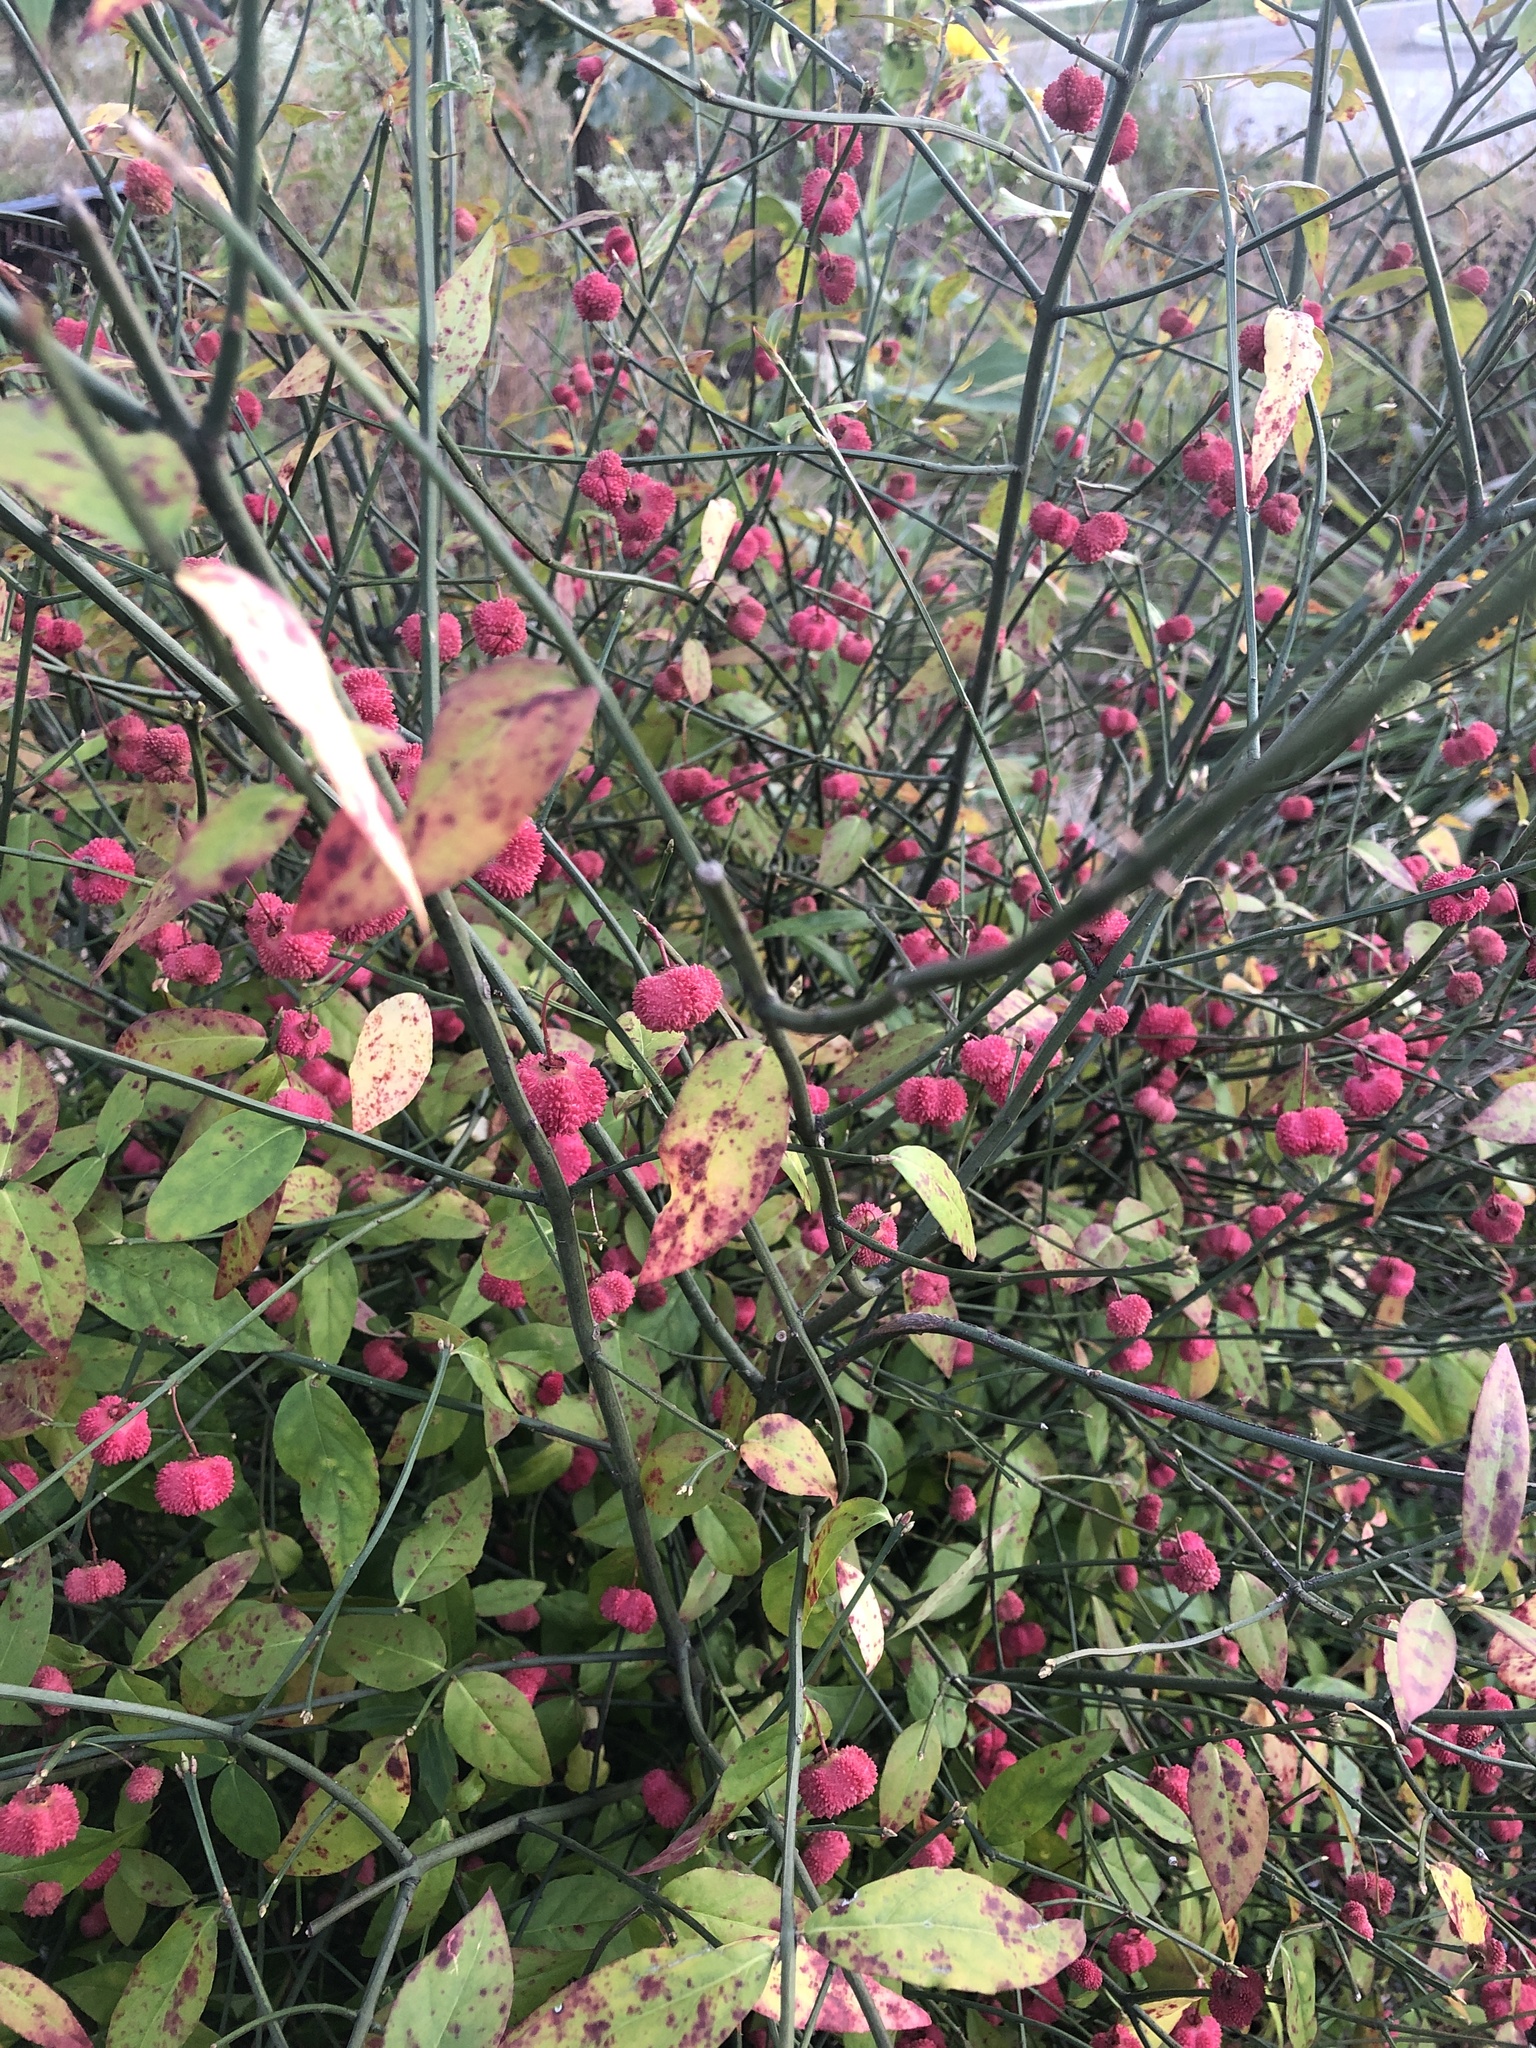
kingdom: Plantae
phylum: Tracheophyta
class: Magnoliopsida
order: Celastrales
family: Celastraceae
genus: Euonymus
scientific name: Euonymus americanus
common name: Bursting-heart
